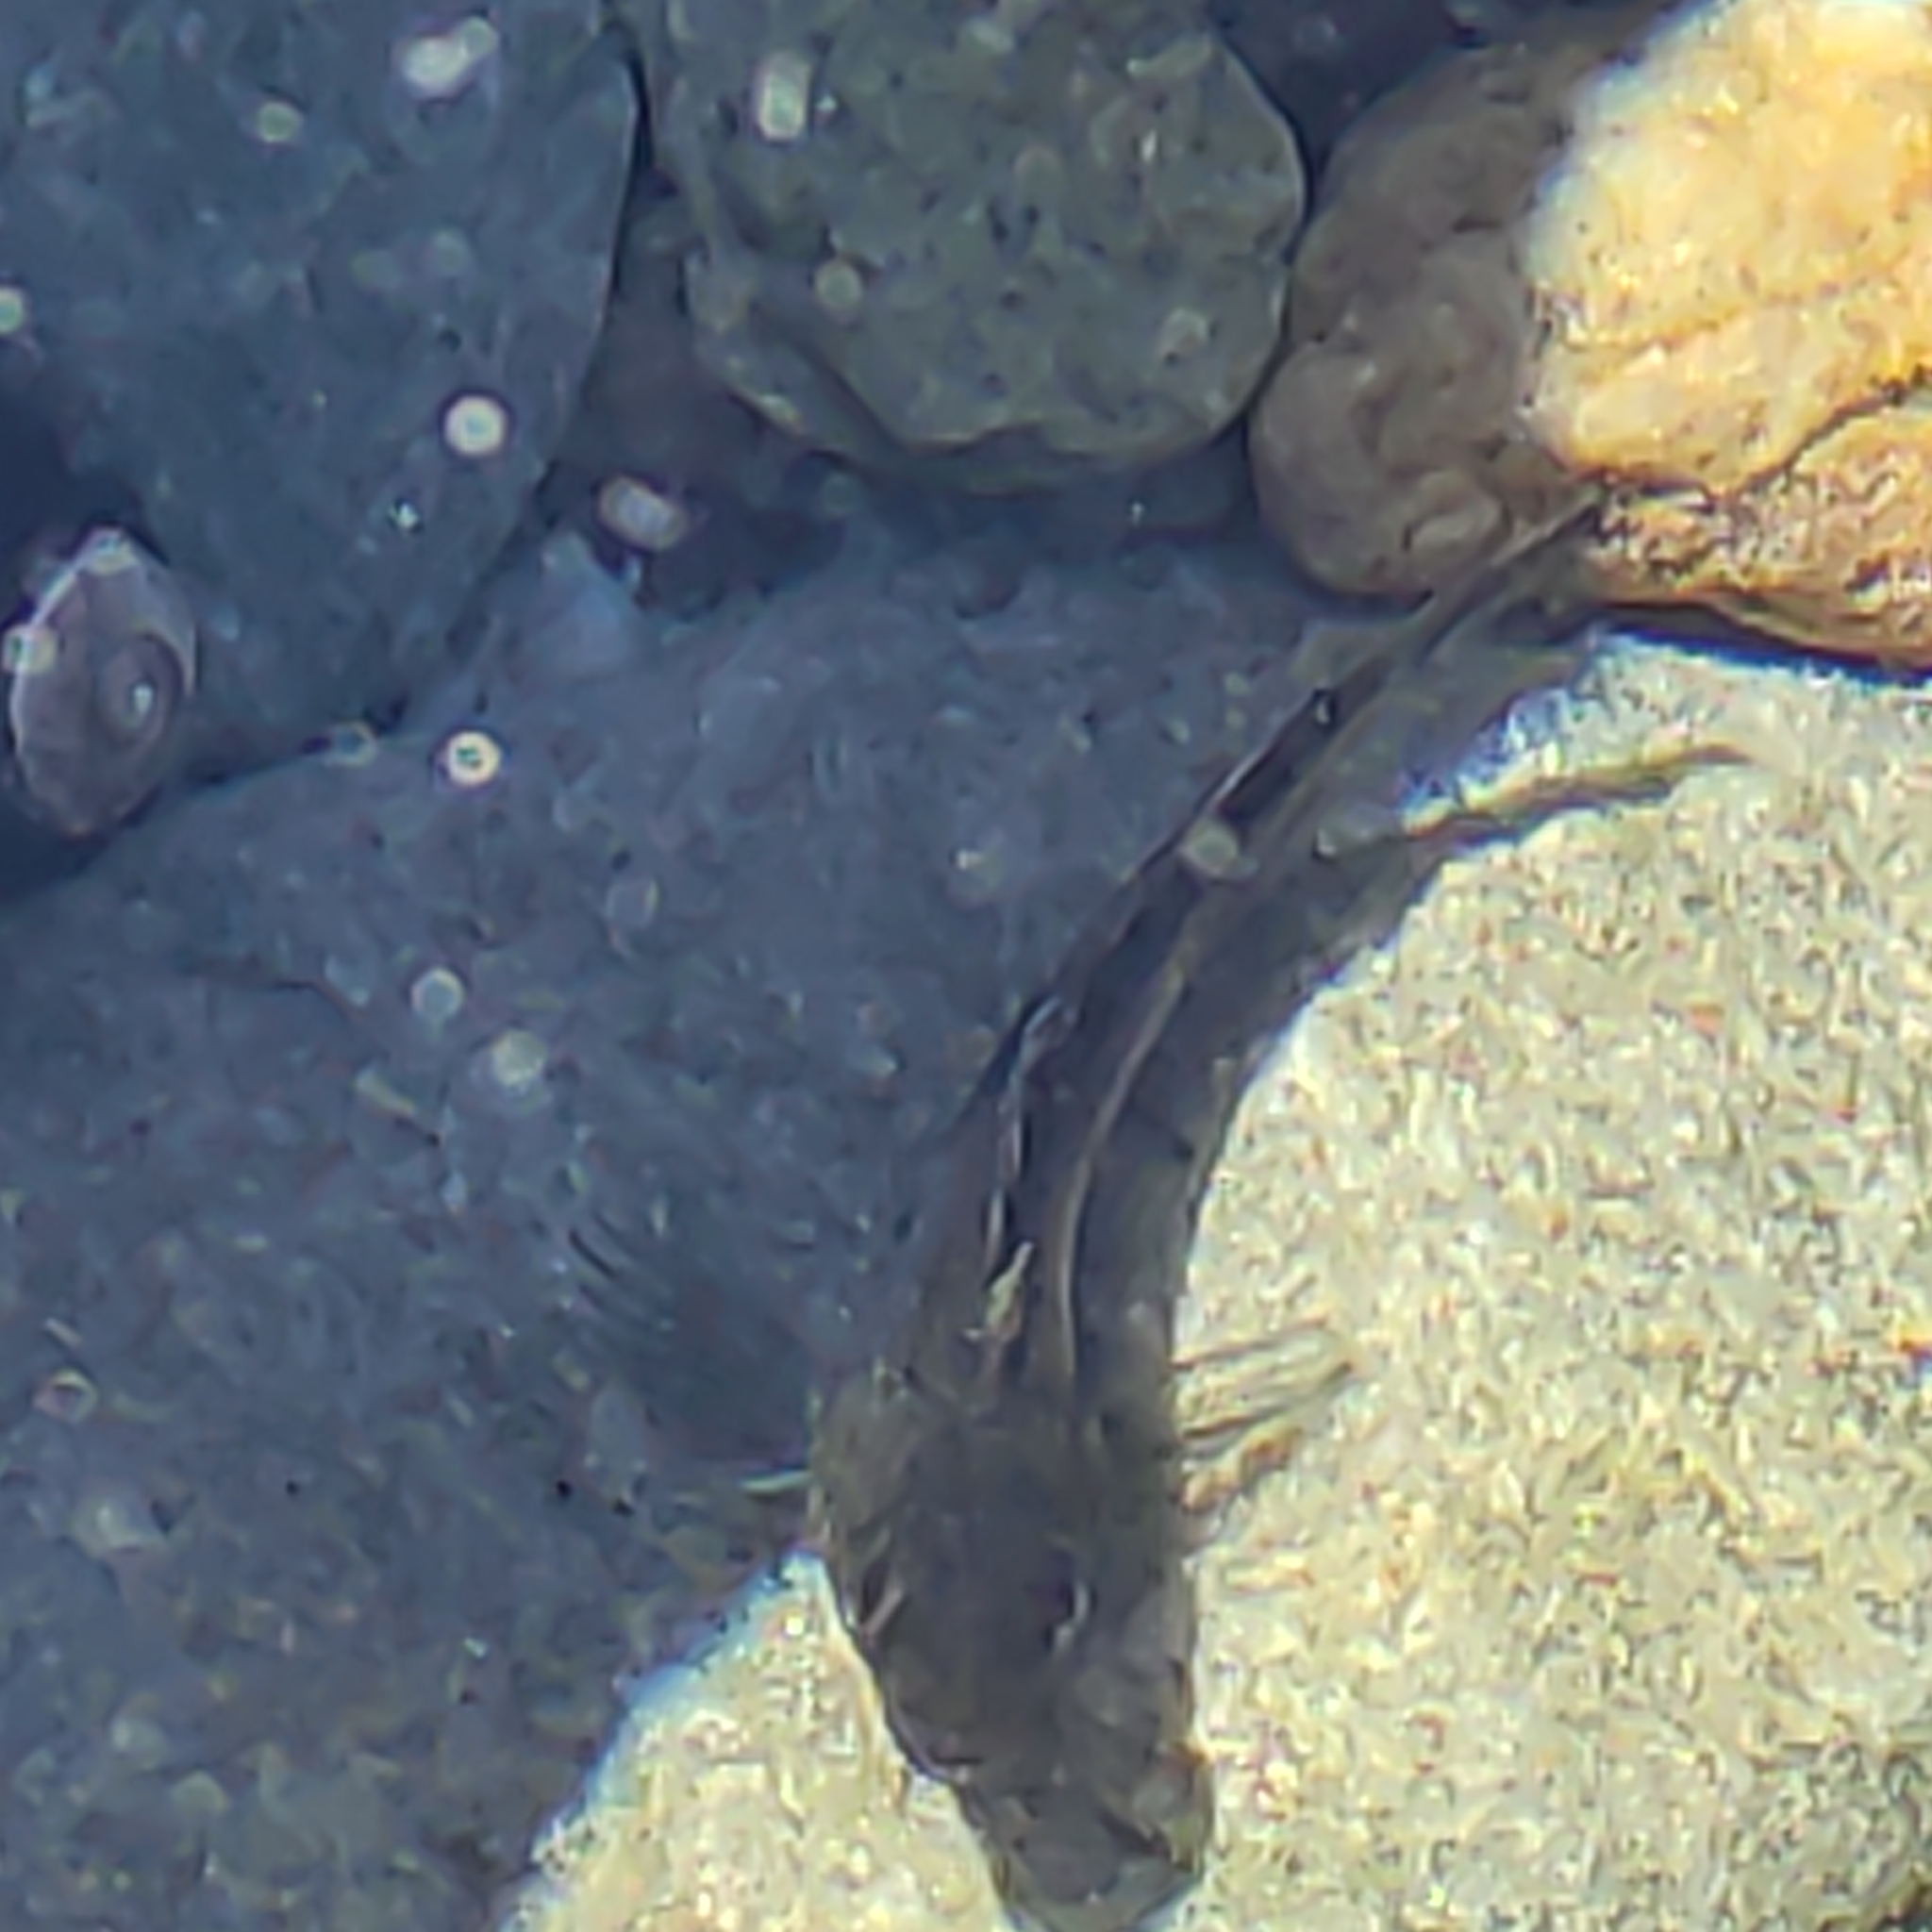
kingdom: Animalia
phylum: Chordata
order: Perciformes
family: Tripterygiidae
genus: Forsterygion
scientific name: Forsterygion lapillum
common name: Common triplefin
